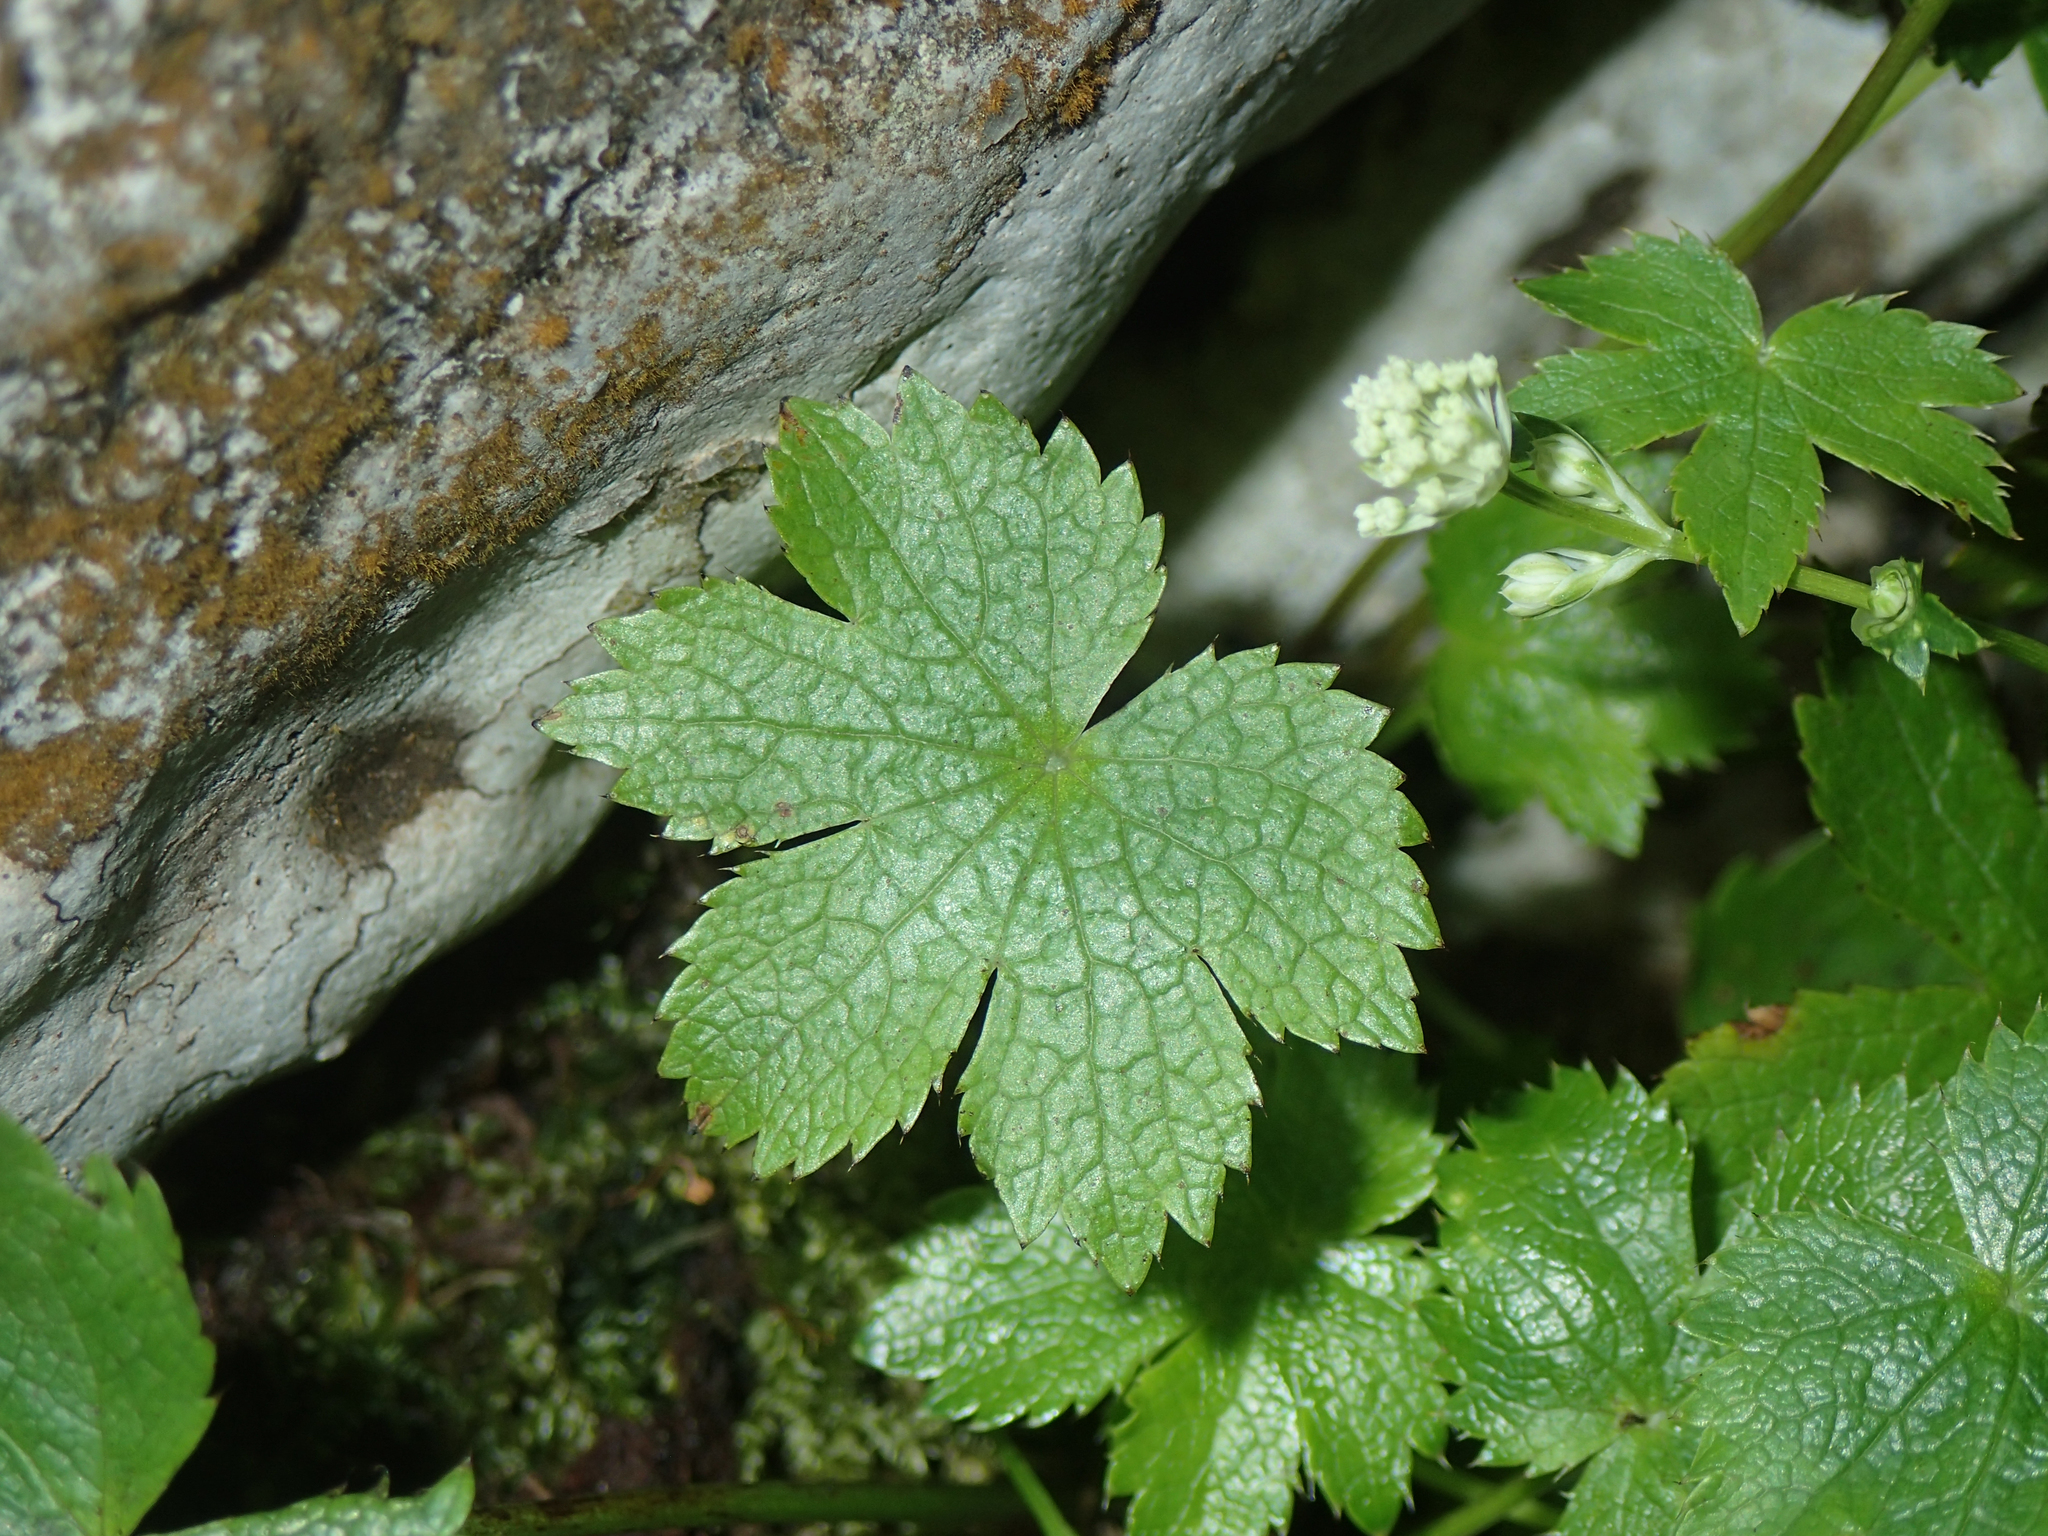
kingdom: Plantae
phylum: Tracheophyta
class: Magnoliopsida
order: Apiales
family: Apiaceae
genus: Astrantia
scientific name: Astrantia carniolica
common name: Carnic masterwort
